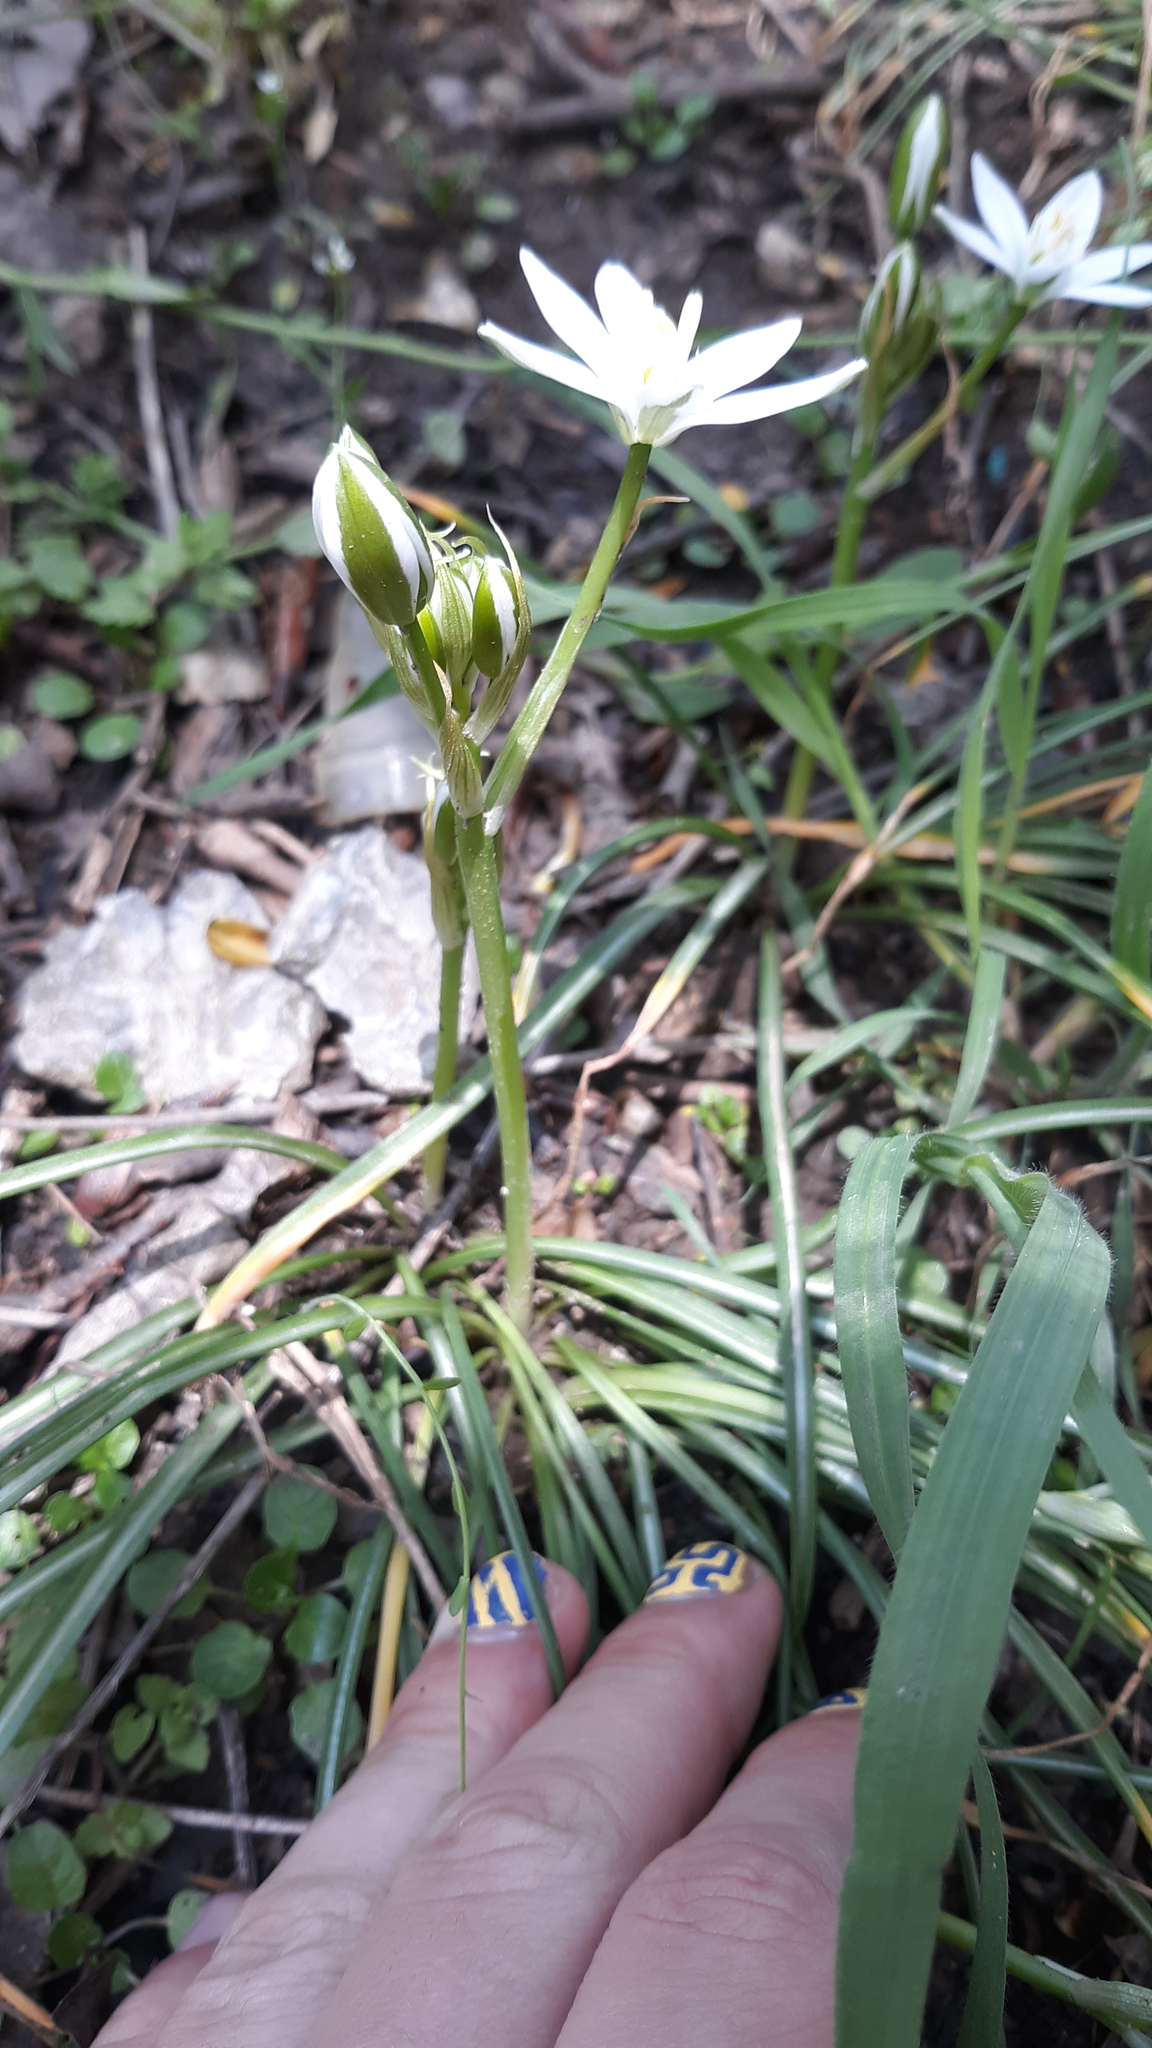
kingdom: Plantae
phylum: Tracheophyta
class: Liliopsida
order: Asparagales
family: Asparagaceae
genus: Ornithogalum
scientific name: Ornithogalum umbellatum
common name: Garden star-of-bethlehem
